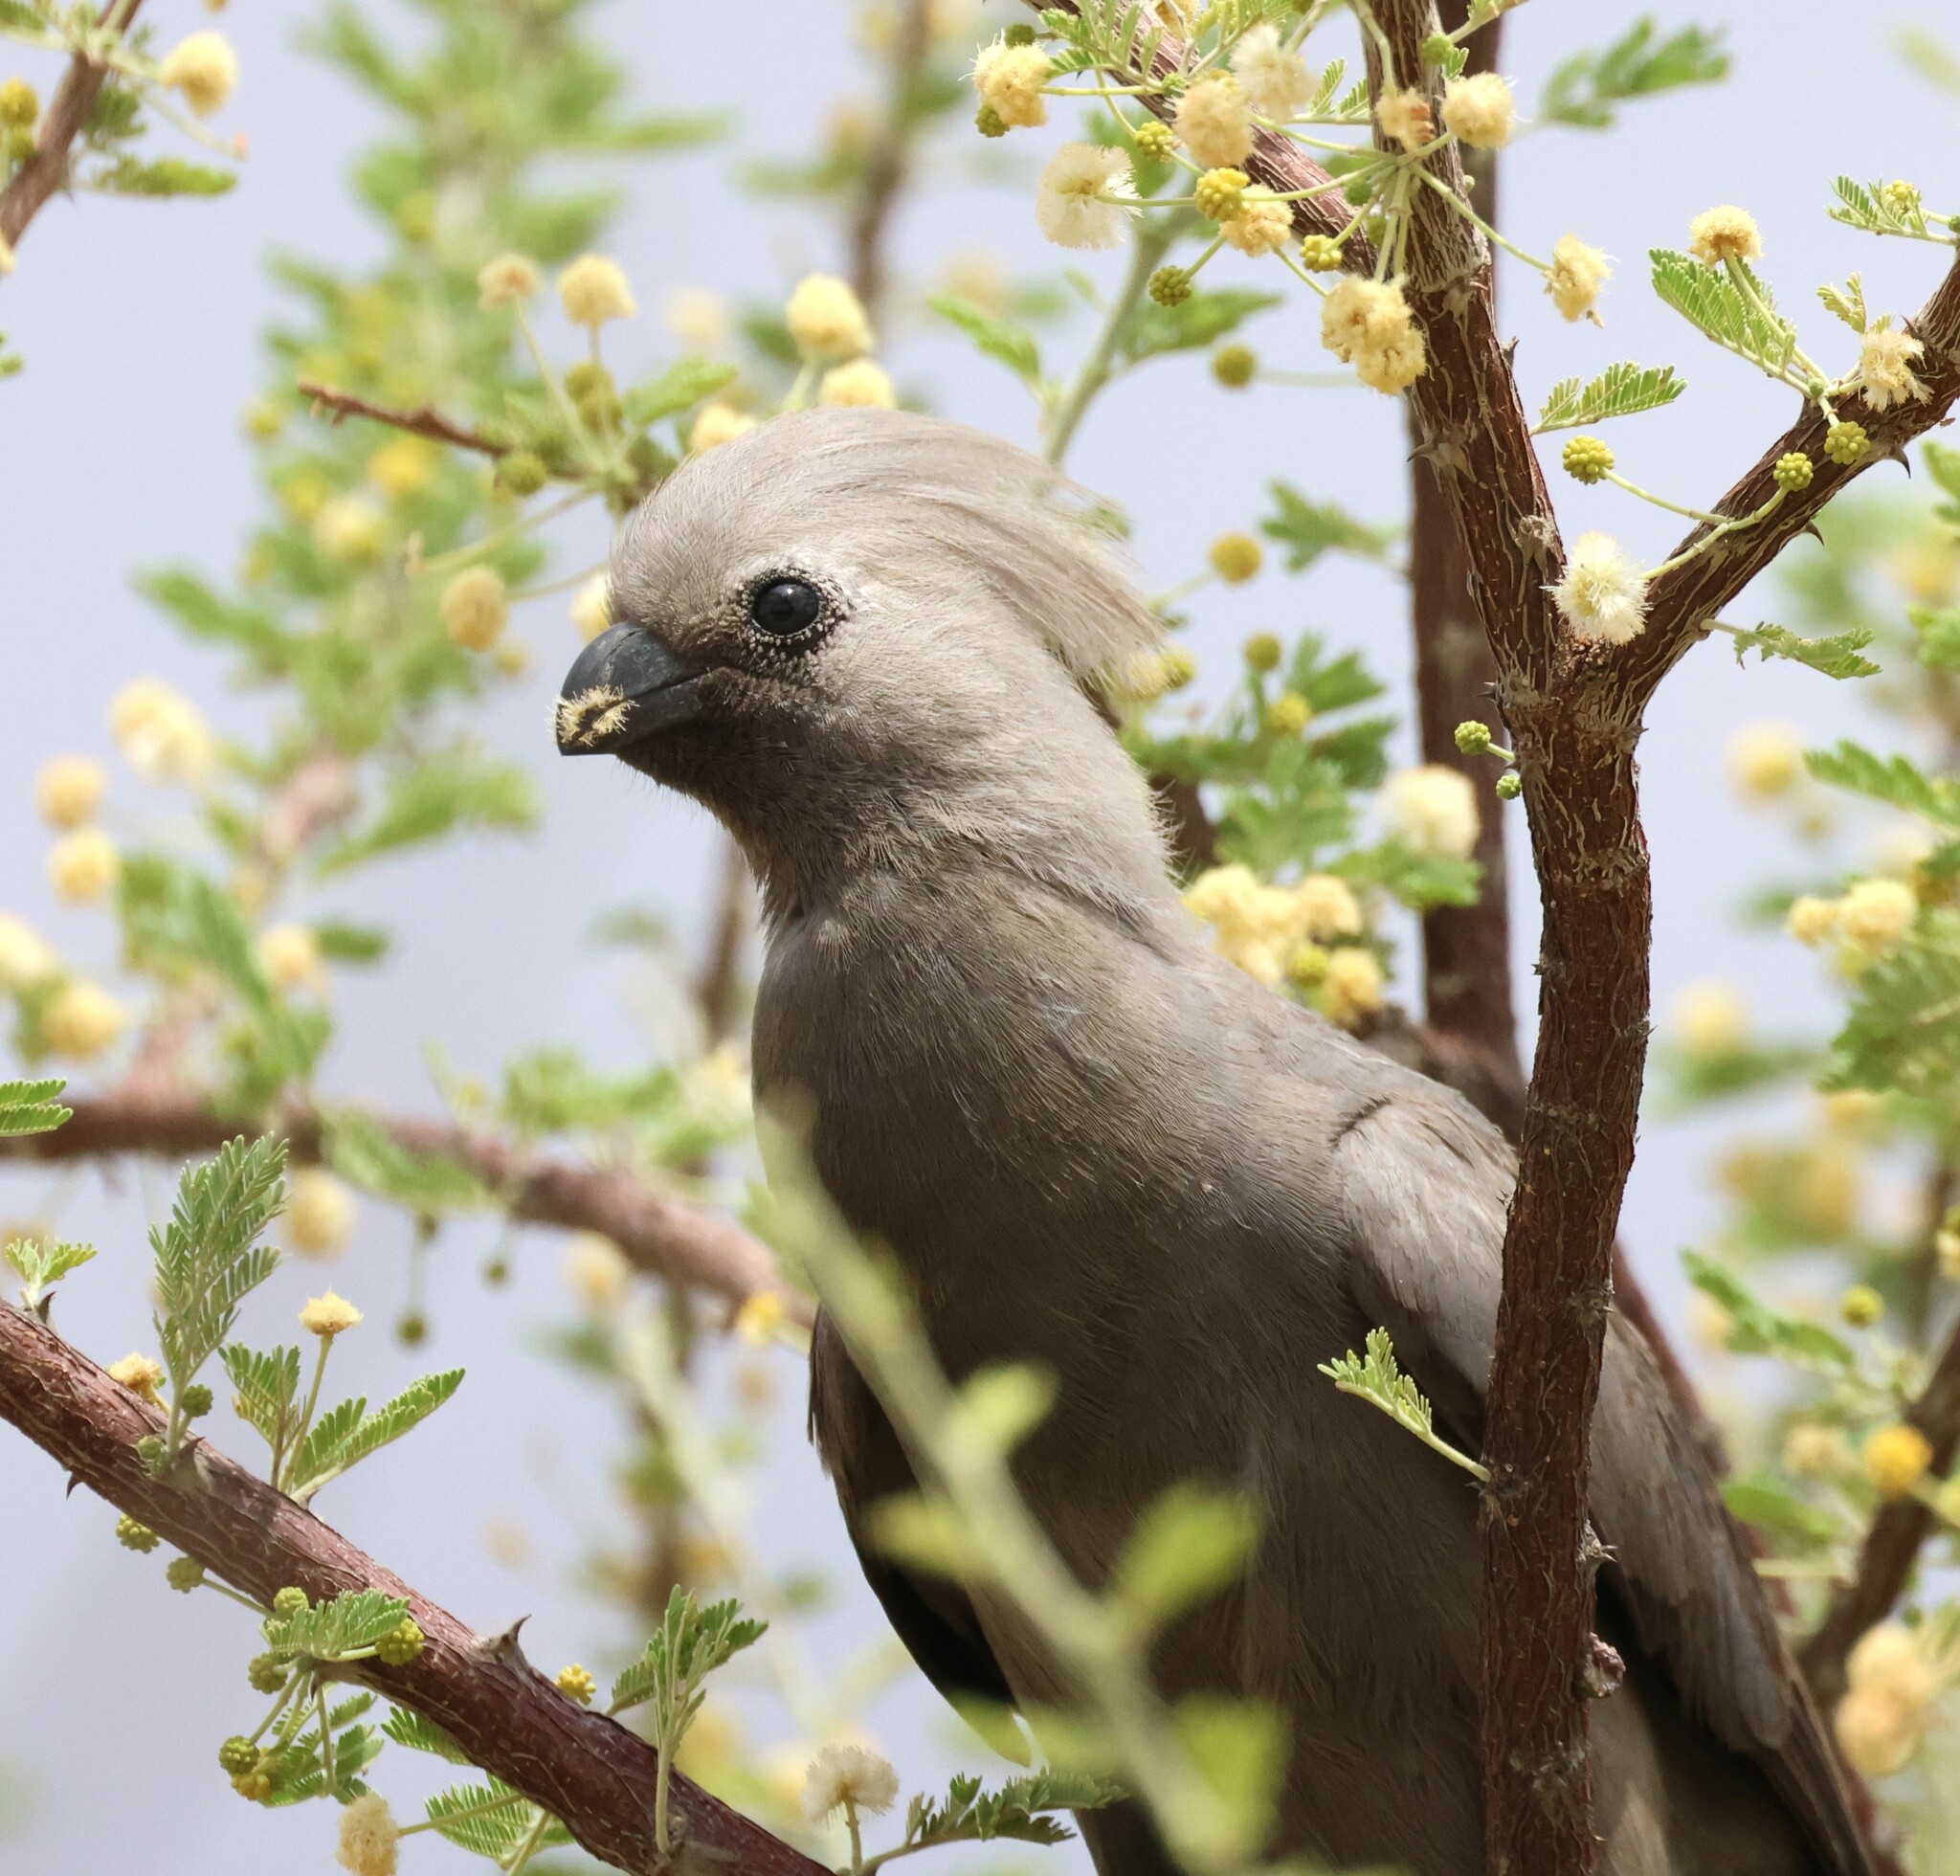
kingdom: Animalia
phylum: Chordata
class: Aves
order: Musophagiformes
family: Musophagidae
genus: Corythaixoides
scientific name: Corythaixoides concolor
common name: Grey go-away-bird
